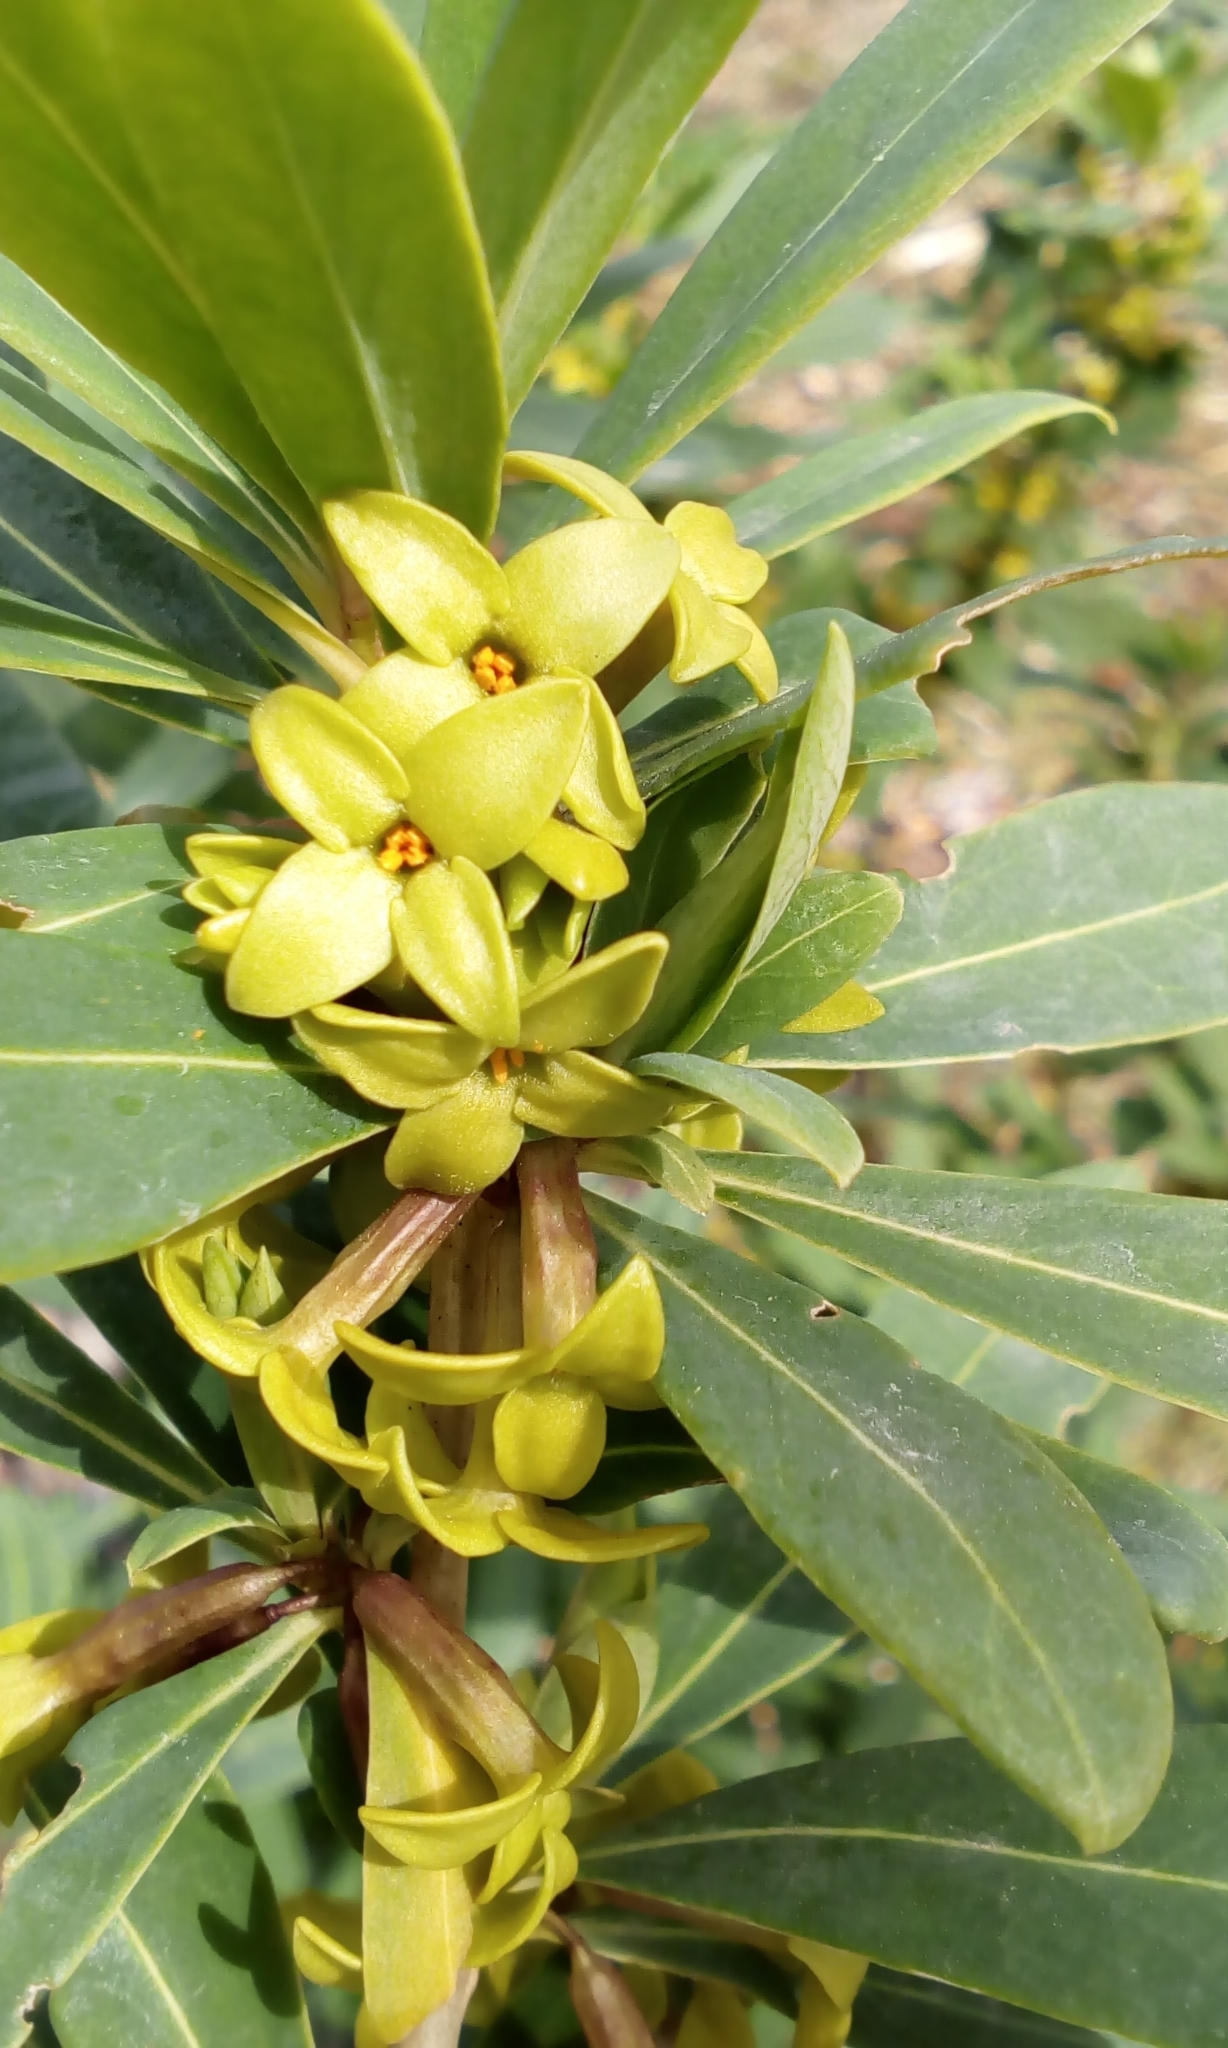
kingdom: Plantae
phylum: Tracheophyta
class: Magnoliopsida
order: Malvales
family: Thymelaeaceae
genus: Daphne
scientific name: Daphne pseudomezereum
